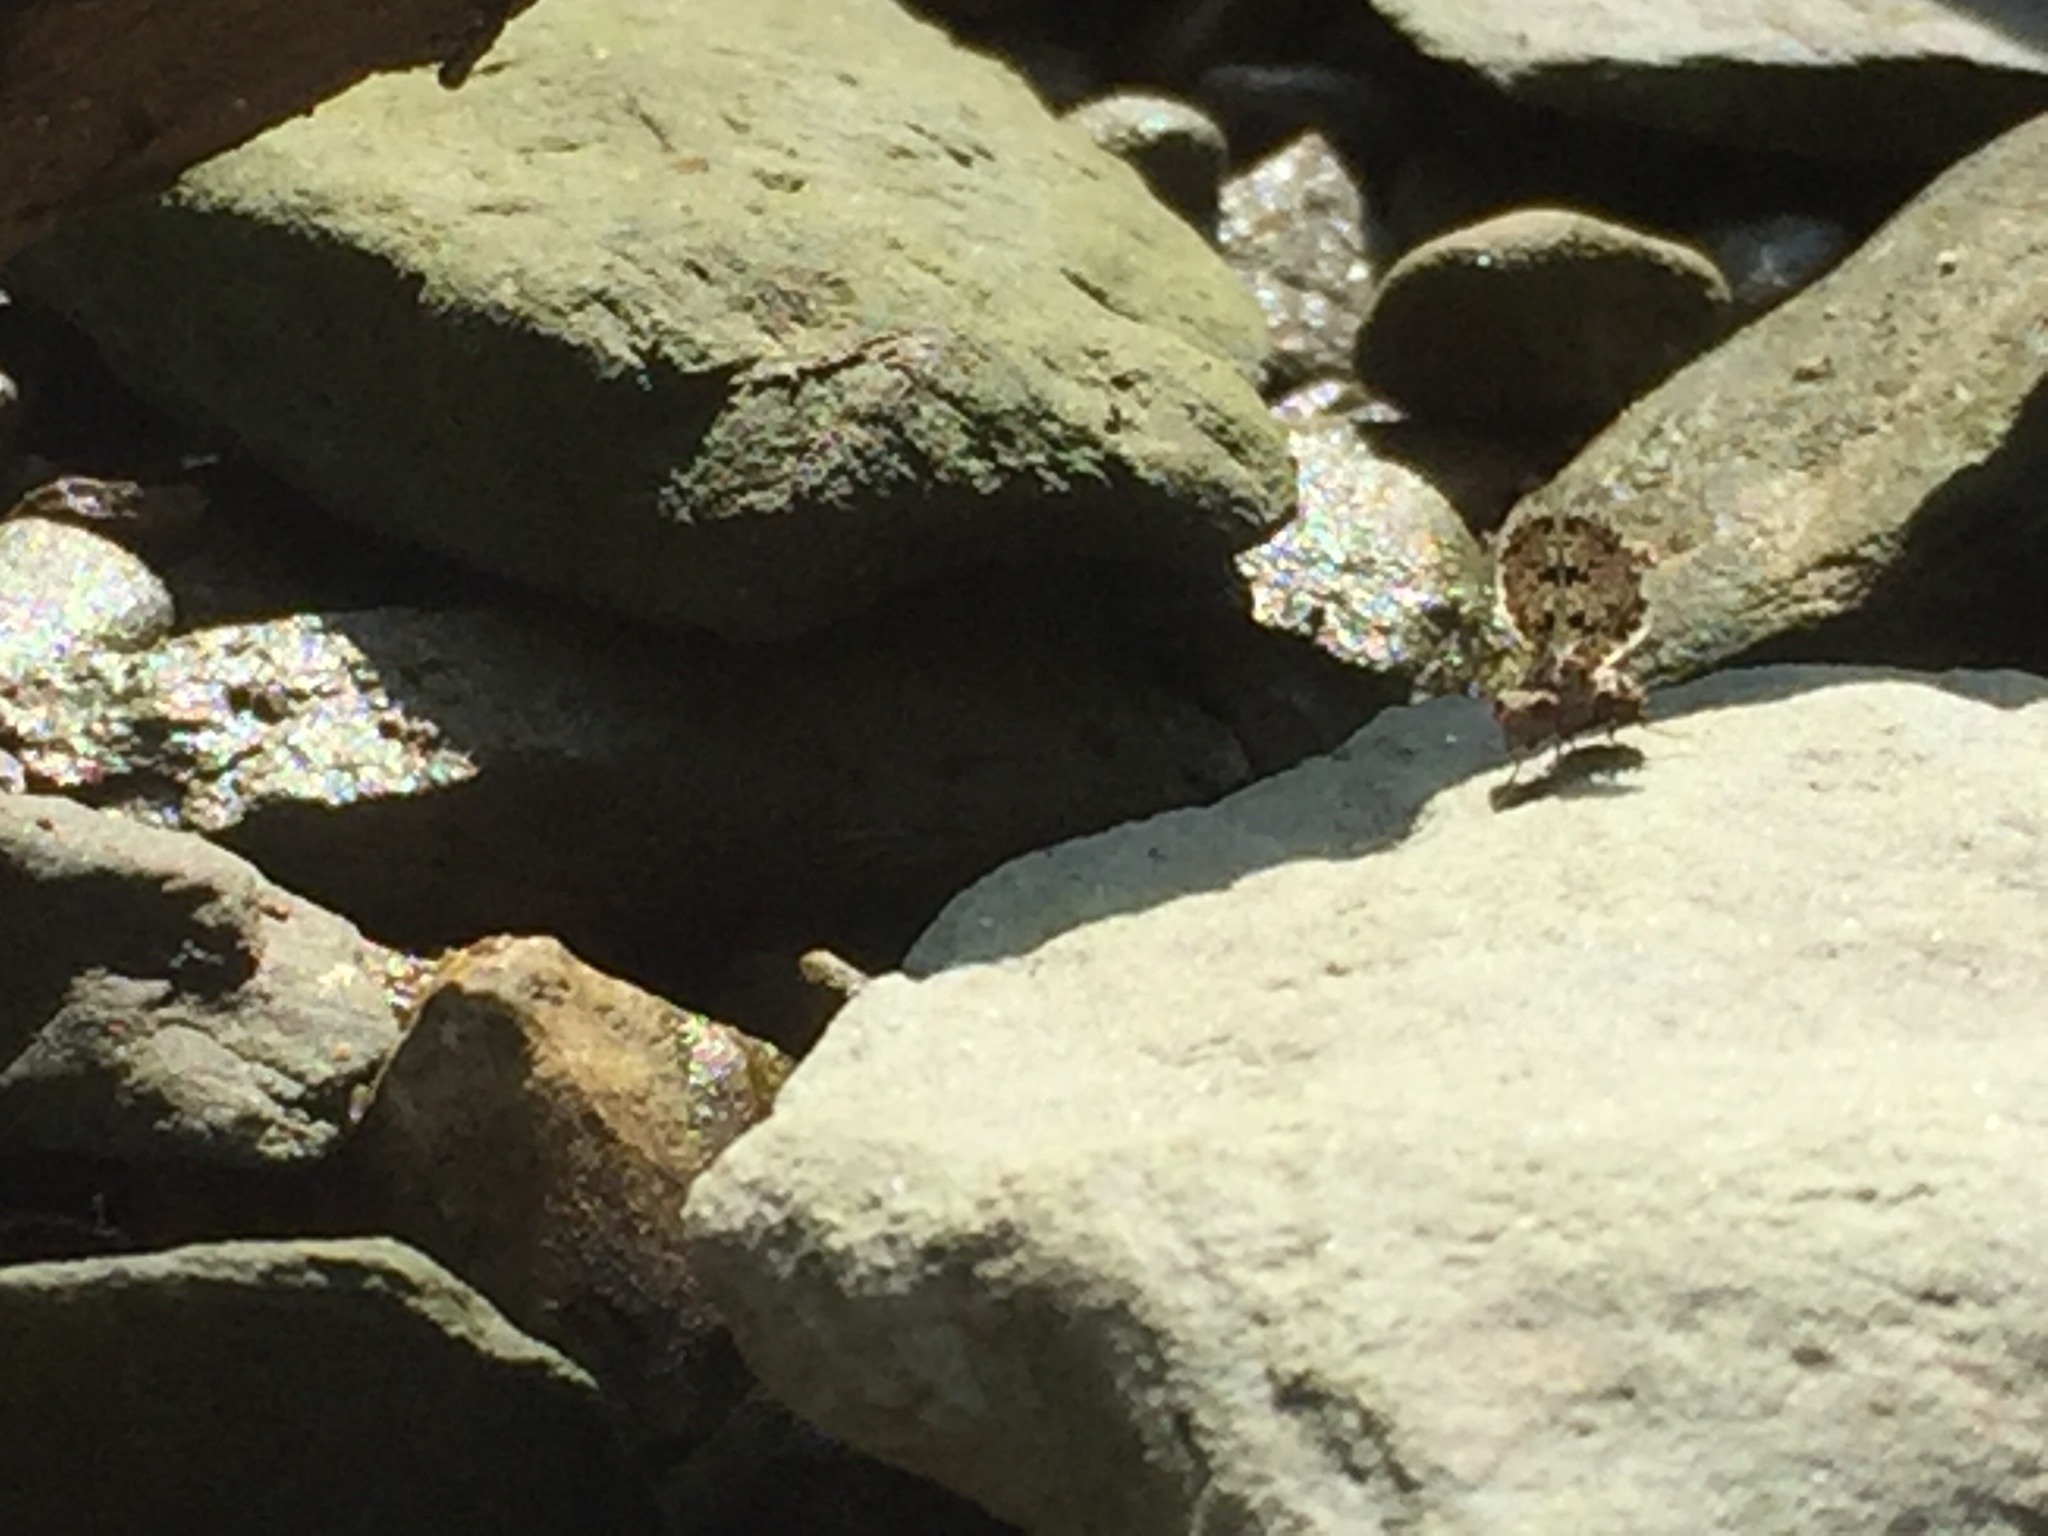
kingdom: Animalia
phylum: Arthropoda
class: Insecta
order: Diptera
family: Ulidiidae
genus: Callopistromyia
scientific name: Callopistromyia annulipes
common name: Peacock fly
